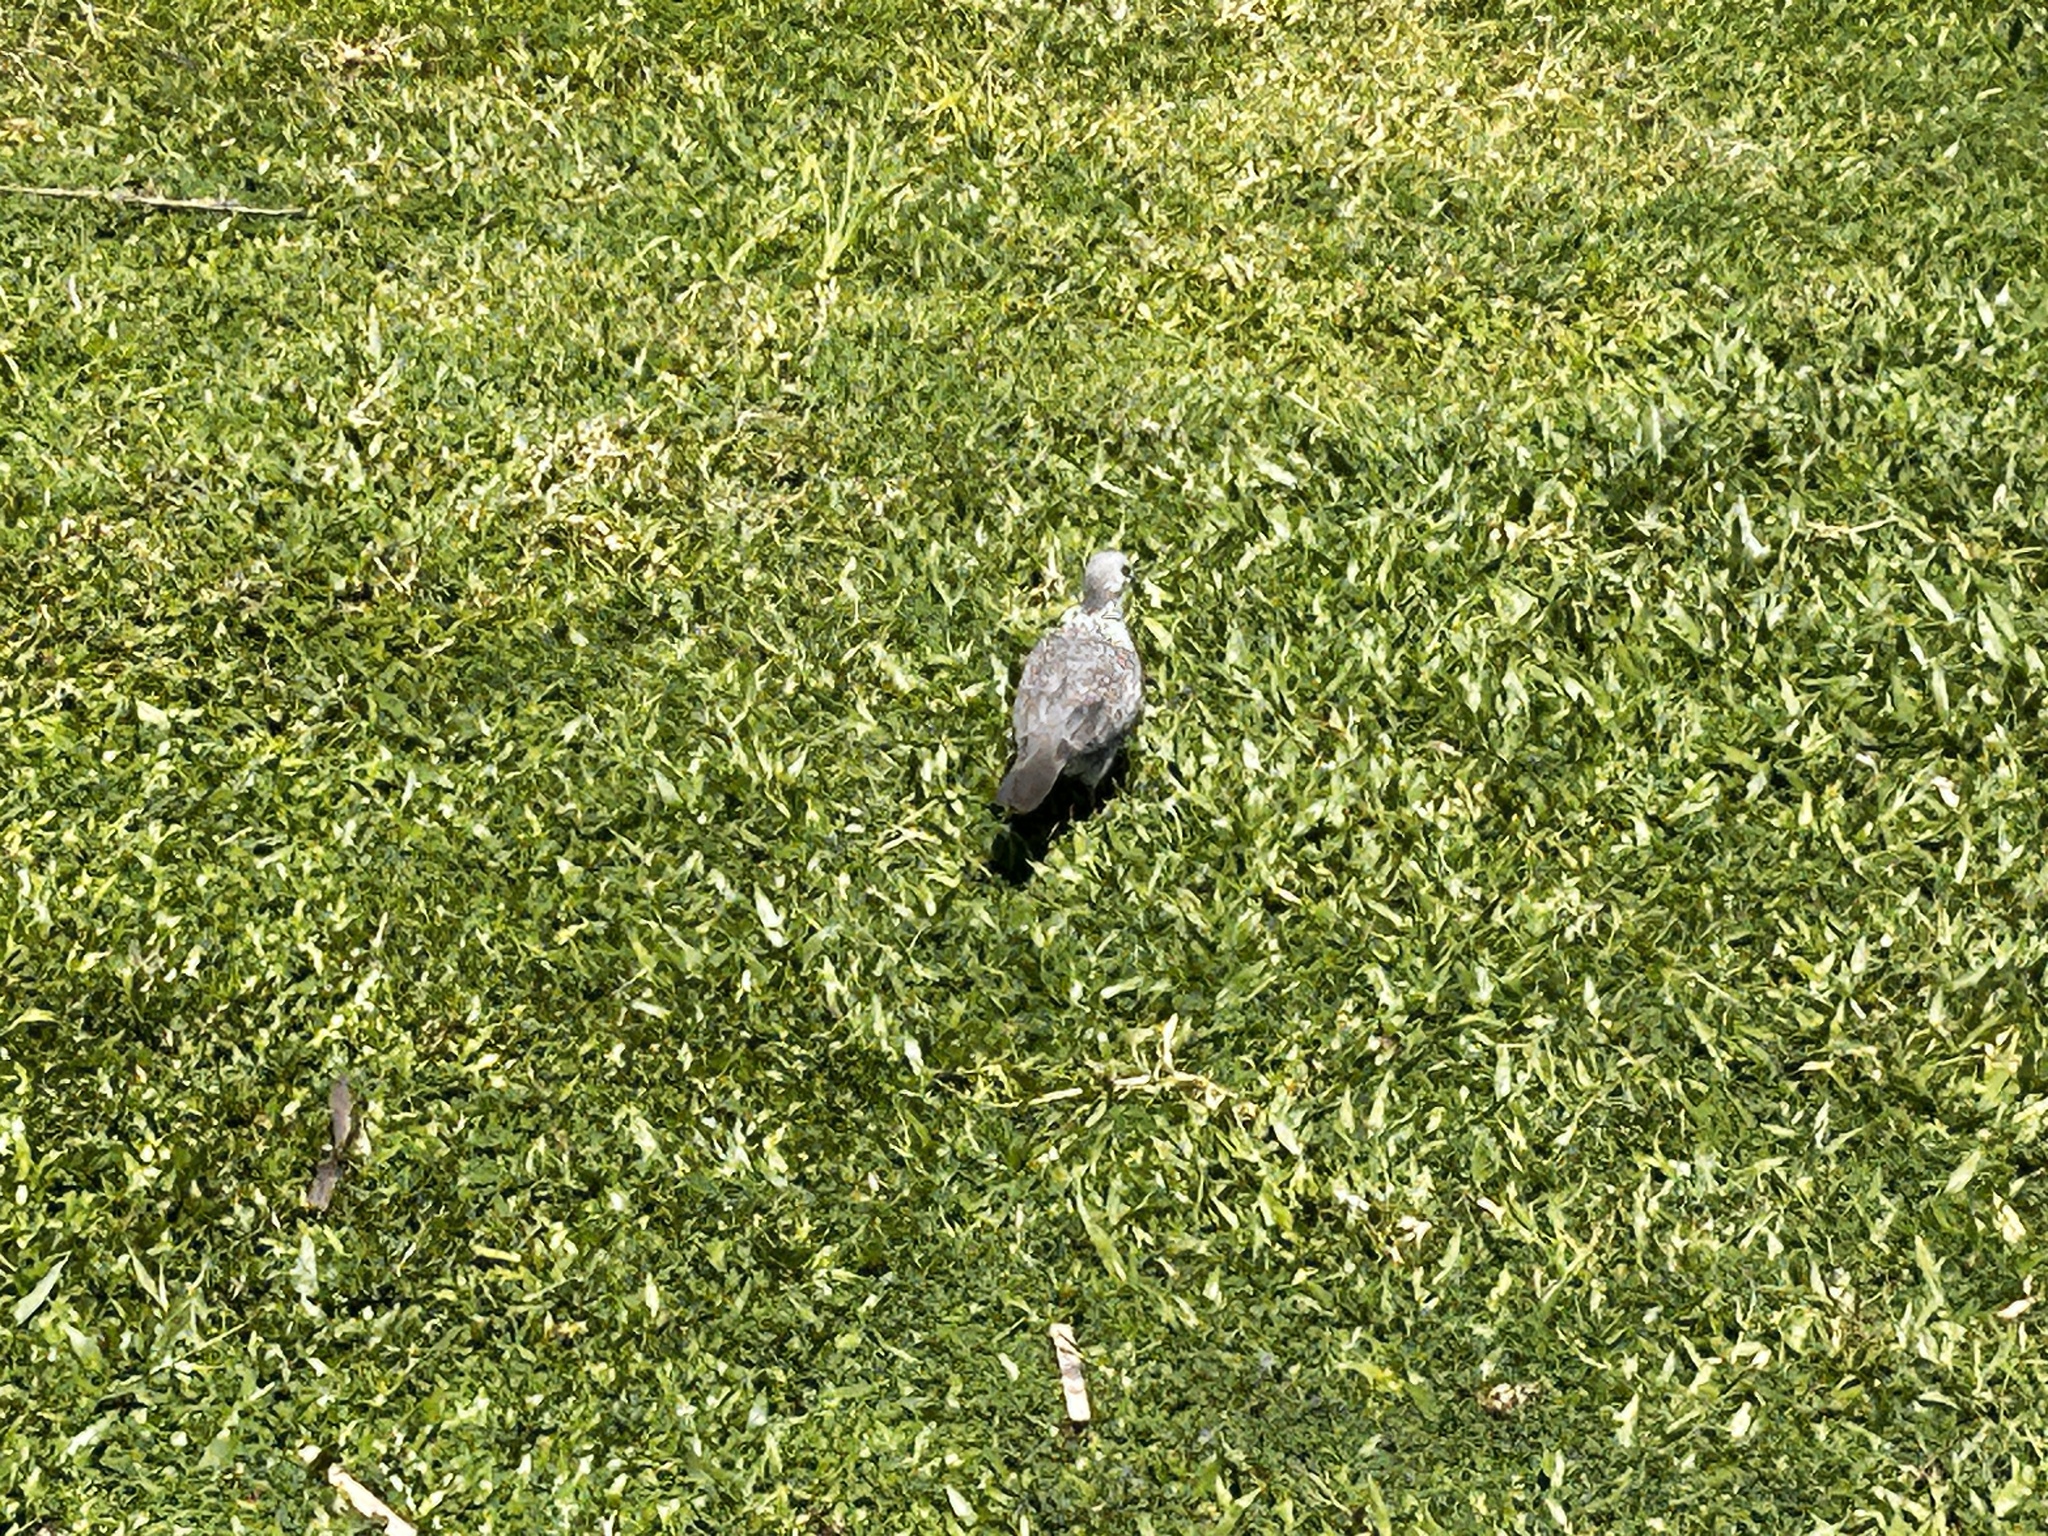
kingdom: Animalia
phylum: Chordata
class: Aves
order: Columbiformes
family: Columbidae
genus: Spilopelia
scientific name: Spilopelia chinensis
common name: Spotted dove
